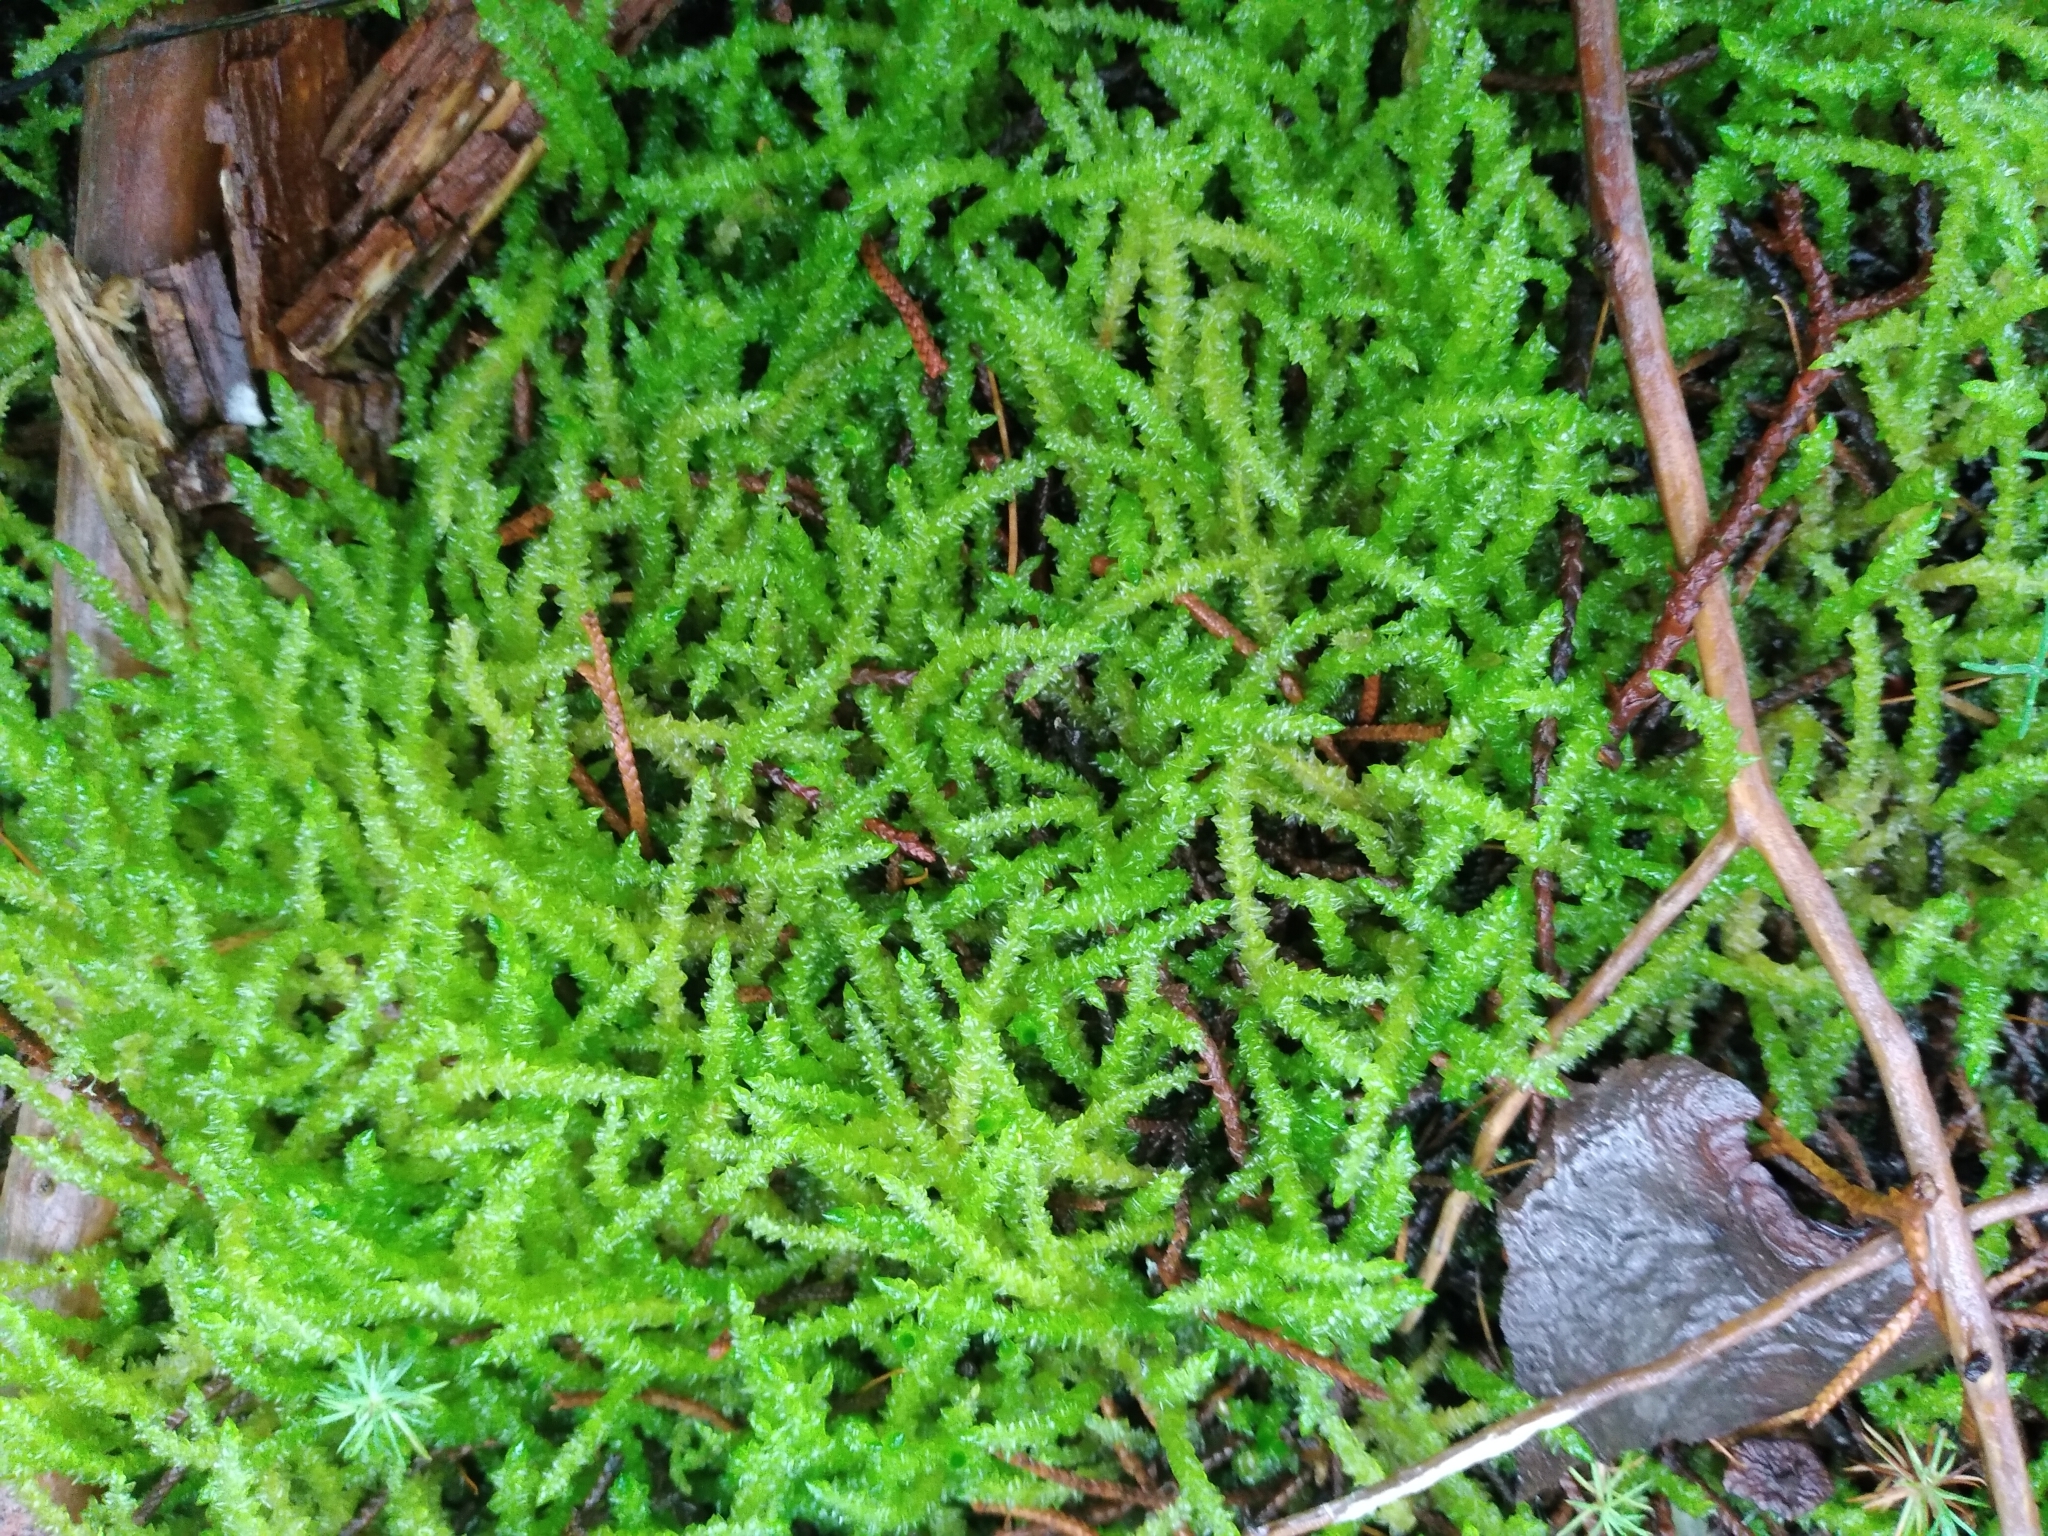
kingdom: Plantae
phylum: Bryophyta
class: Bryopsida
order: Hypnales
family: Acrocladiaceae
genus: Acrocladium
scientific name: Acrocladium chlamydophyllum
